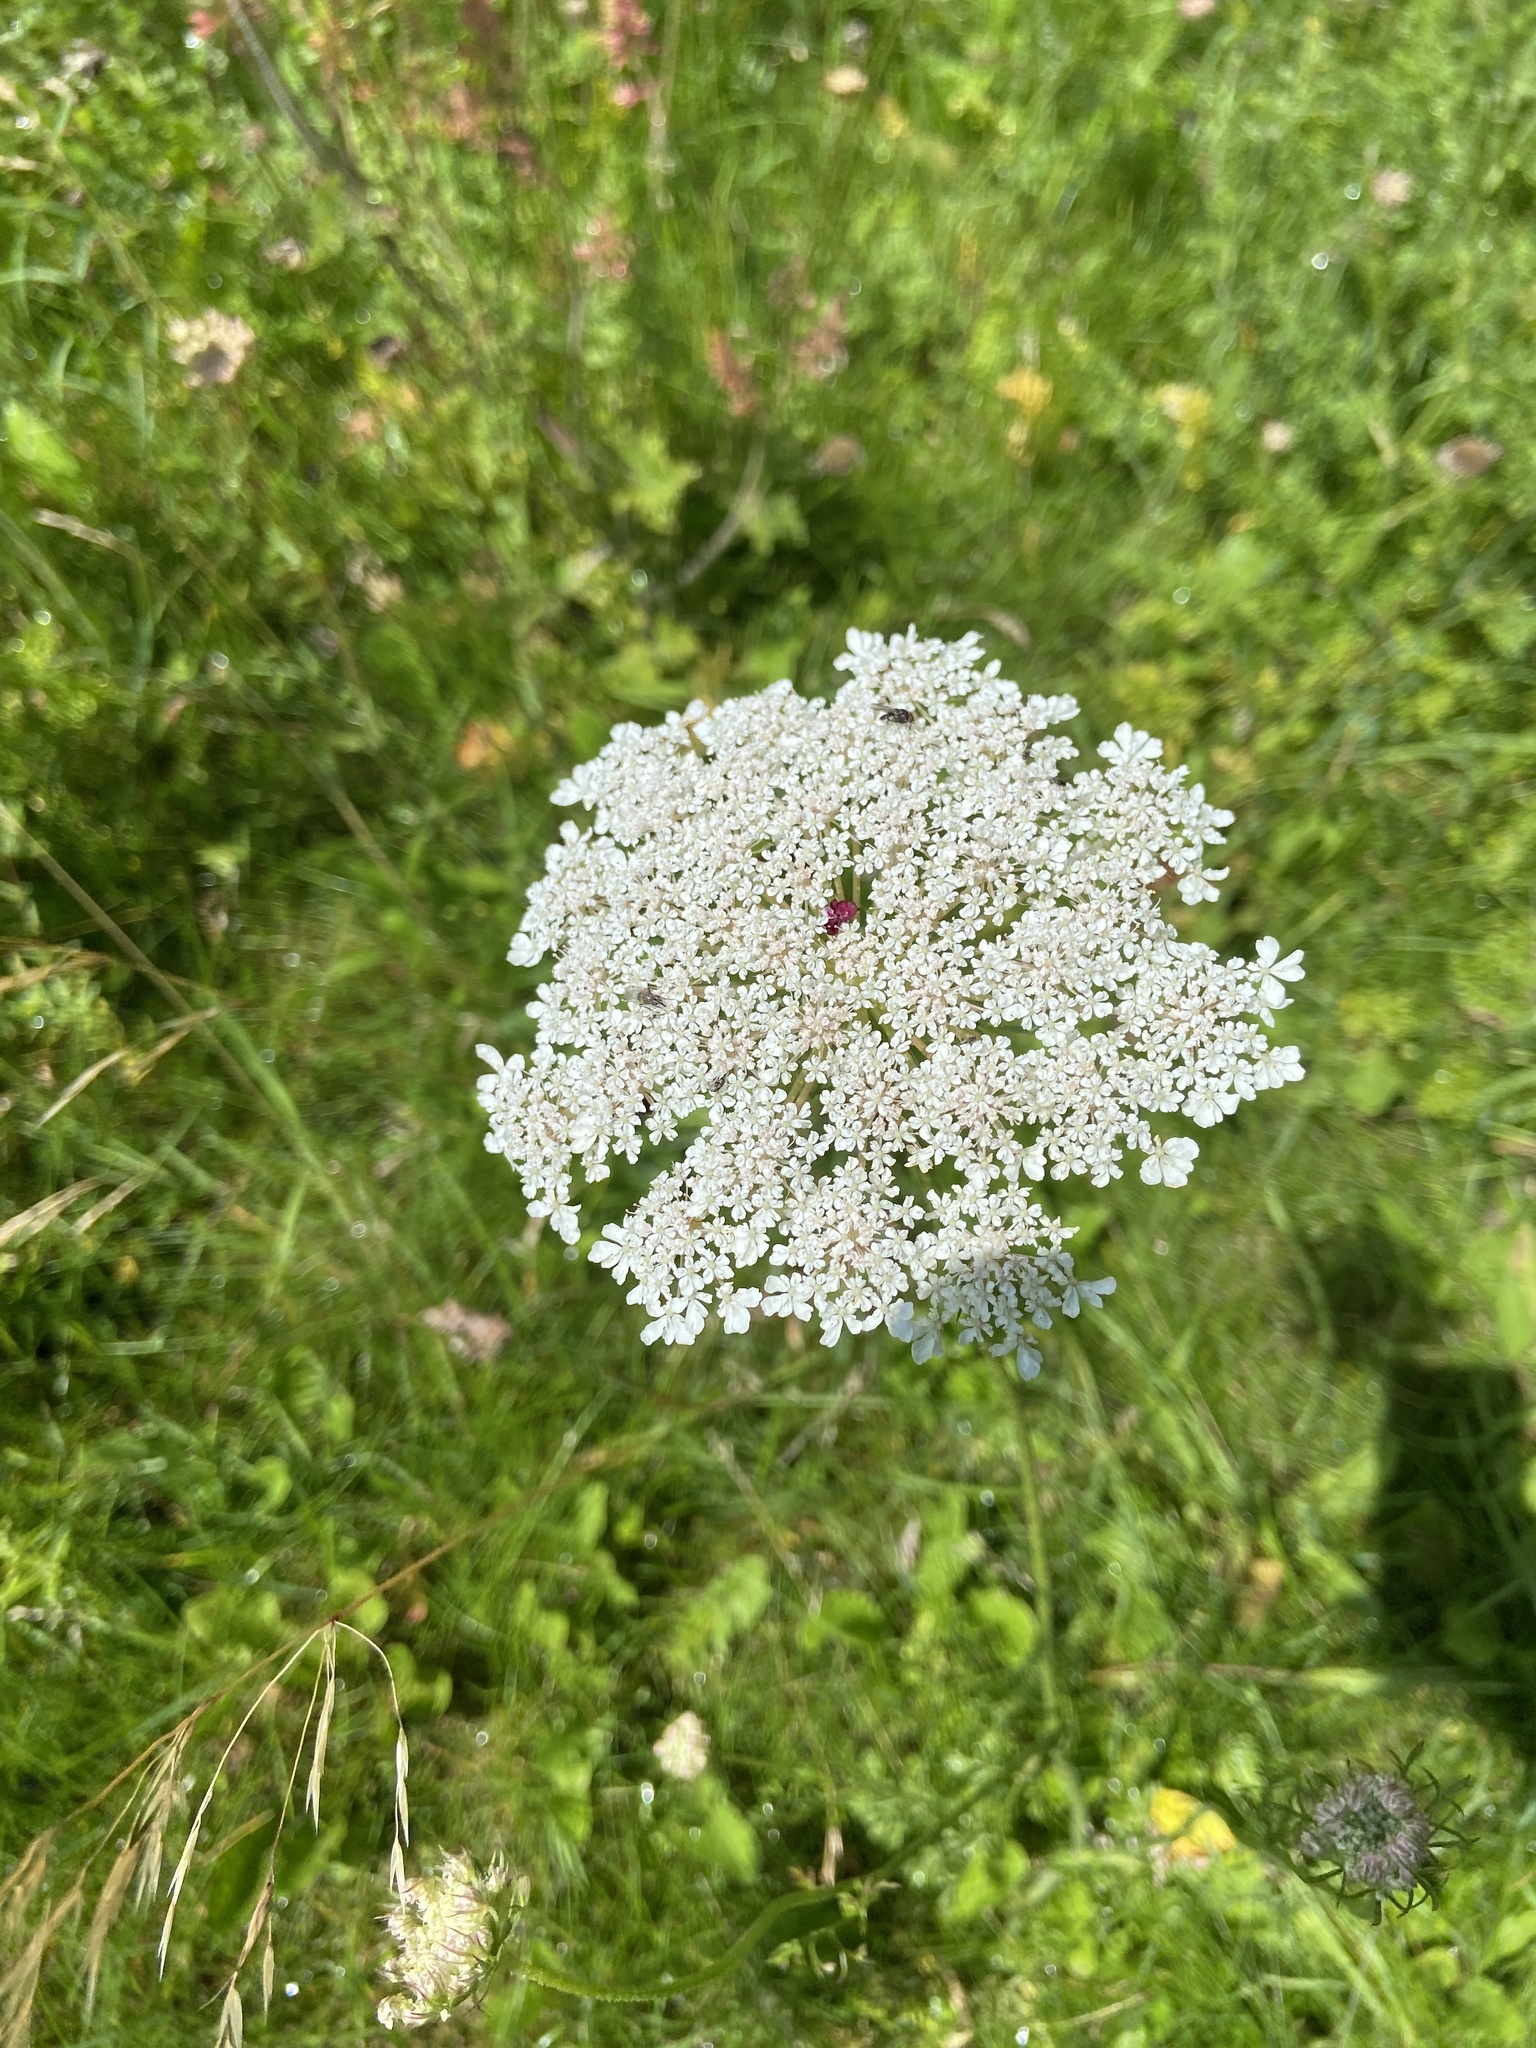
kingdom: Plantae
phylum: Tracheophyta
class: Magnoliopsida
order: Apiales
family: Apiaceae
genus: Daucus
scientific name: Daucus carota
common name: Wild carrot
